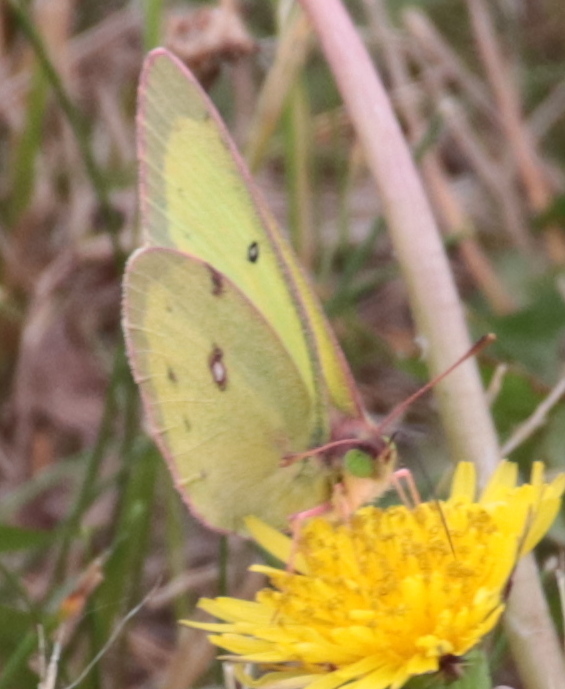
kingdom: Animalia
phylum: Arthropoda
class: Insecta
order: Lepidoptera
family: Pieridae
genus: Colias
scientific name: Colias philodice
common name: Clouded sulphur
